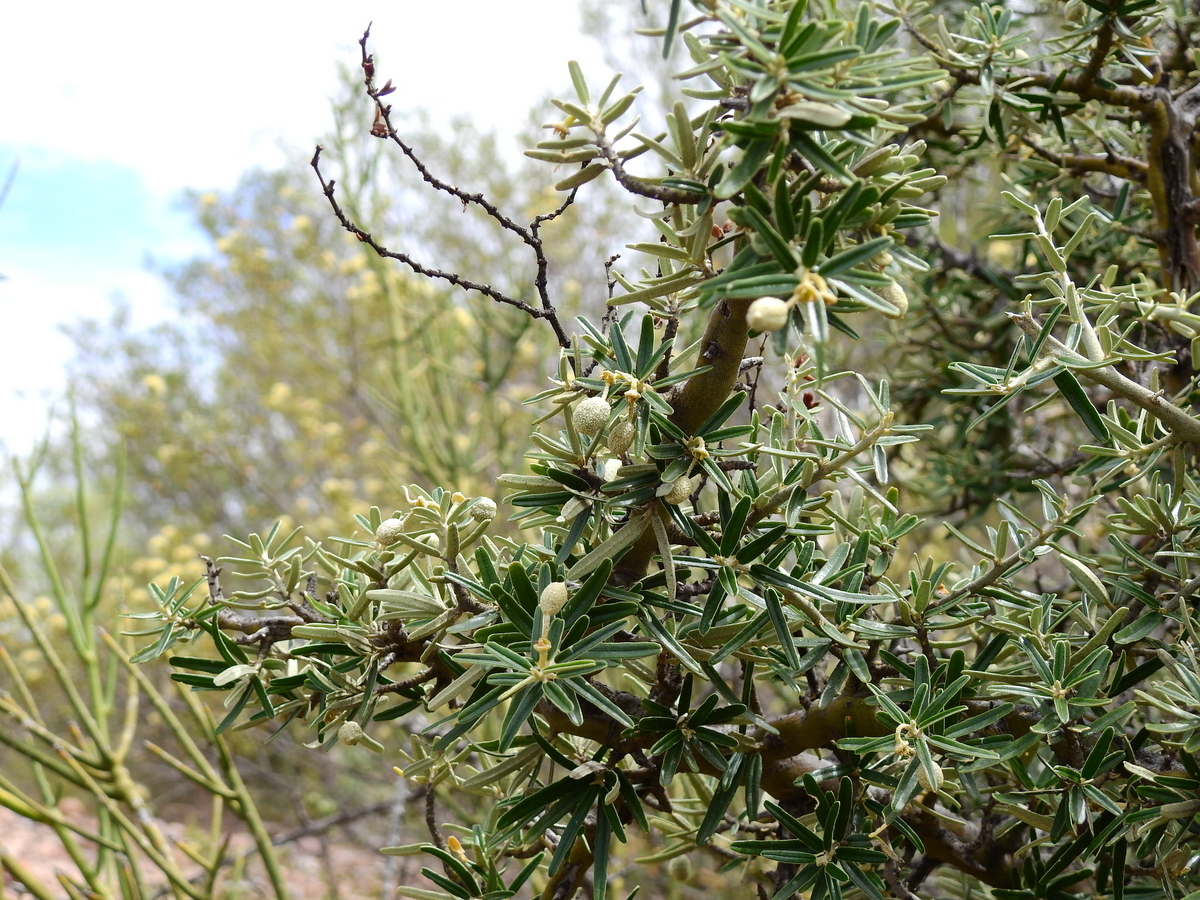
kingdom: Plantae
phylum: Tracheophyta
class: Magnoliopsida
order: Brassicales
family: Capparaceae
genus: Atamisquea
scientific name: Atamisquea emarginata
